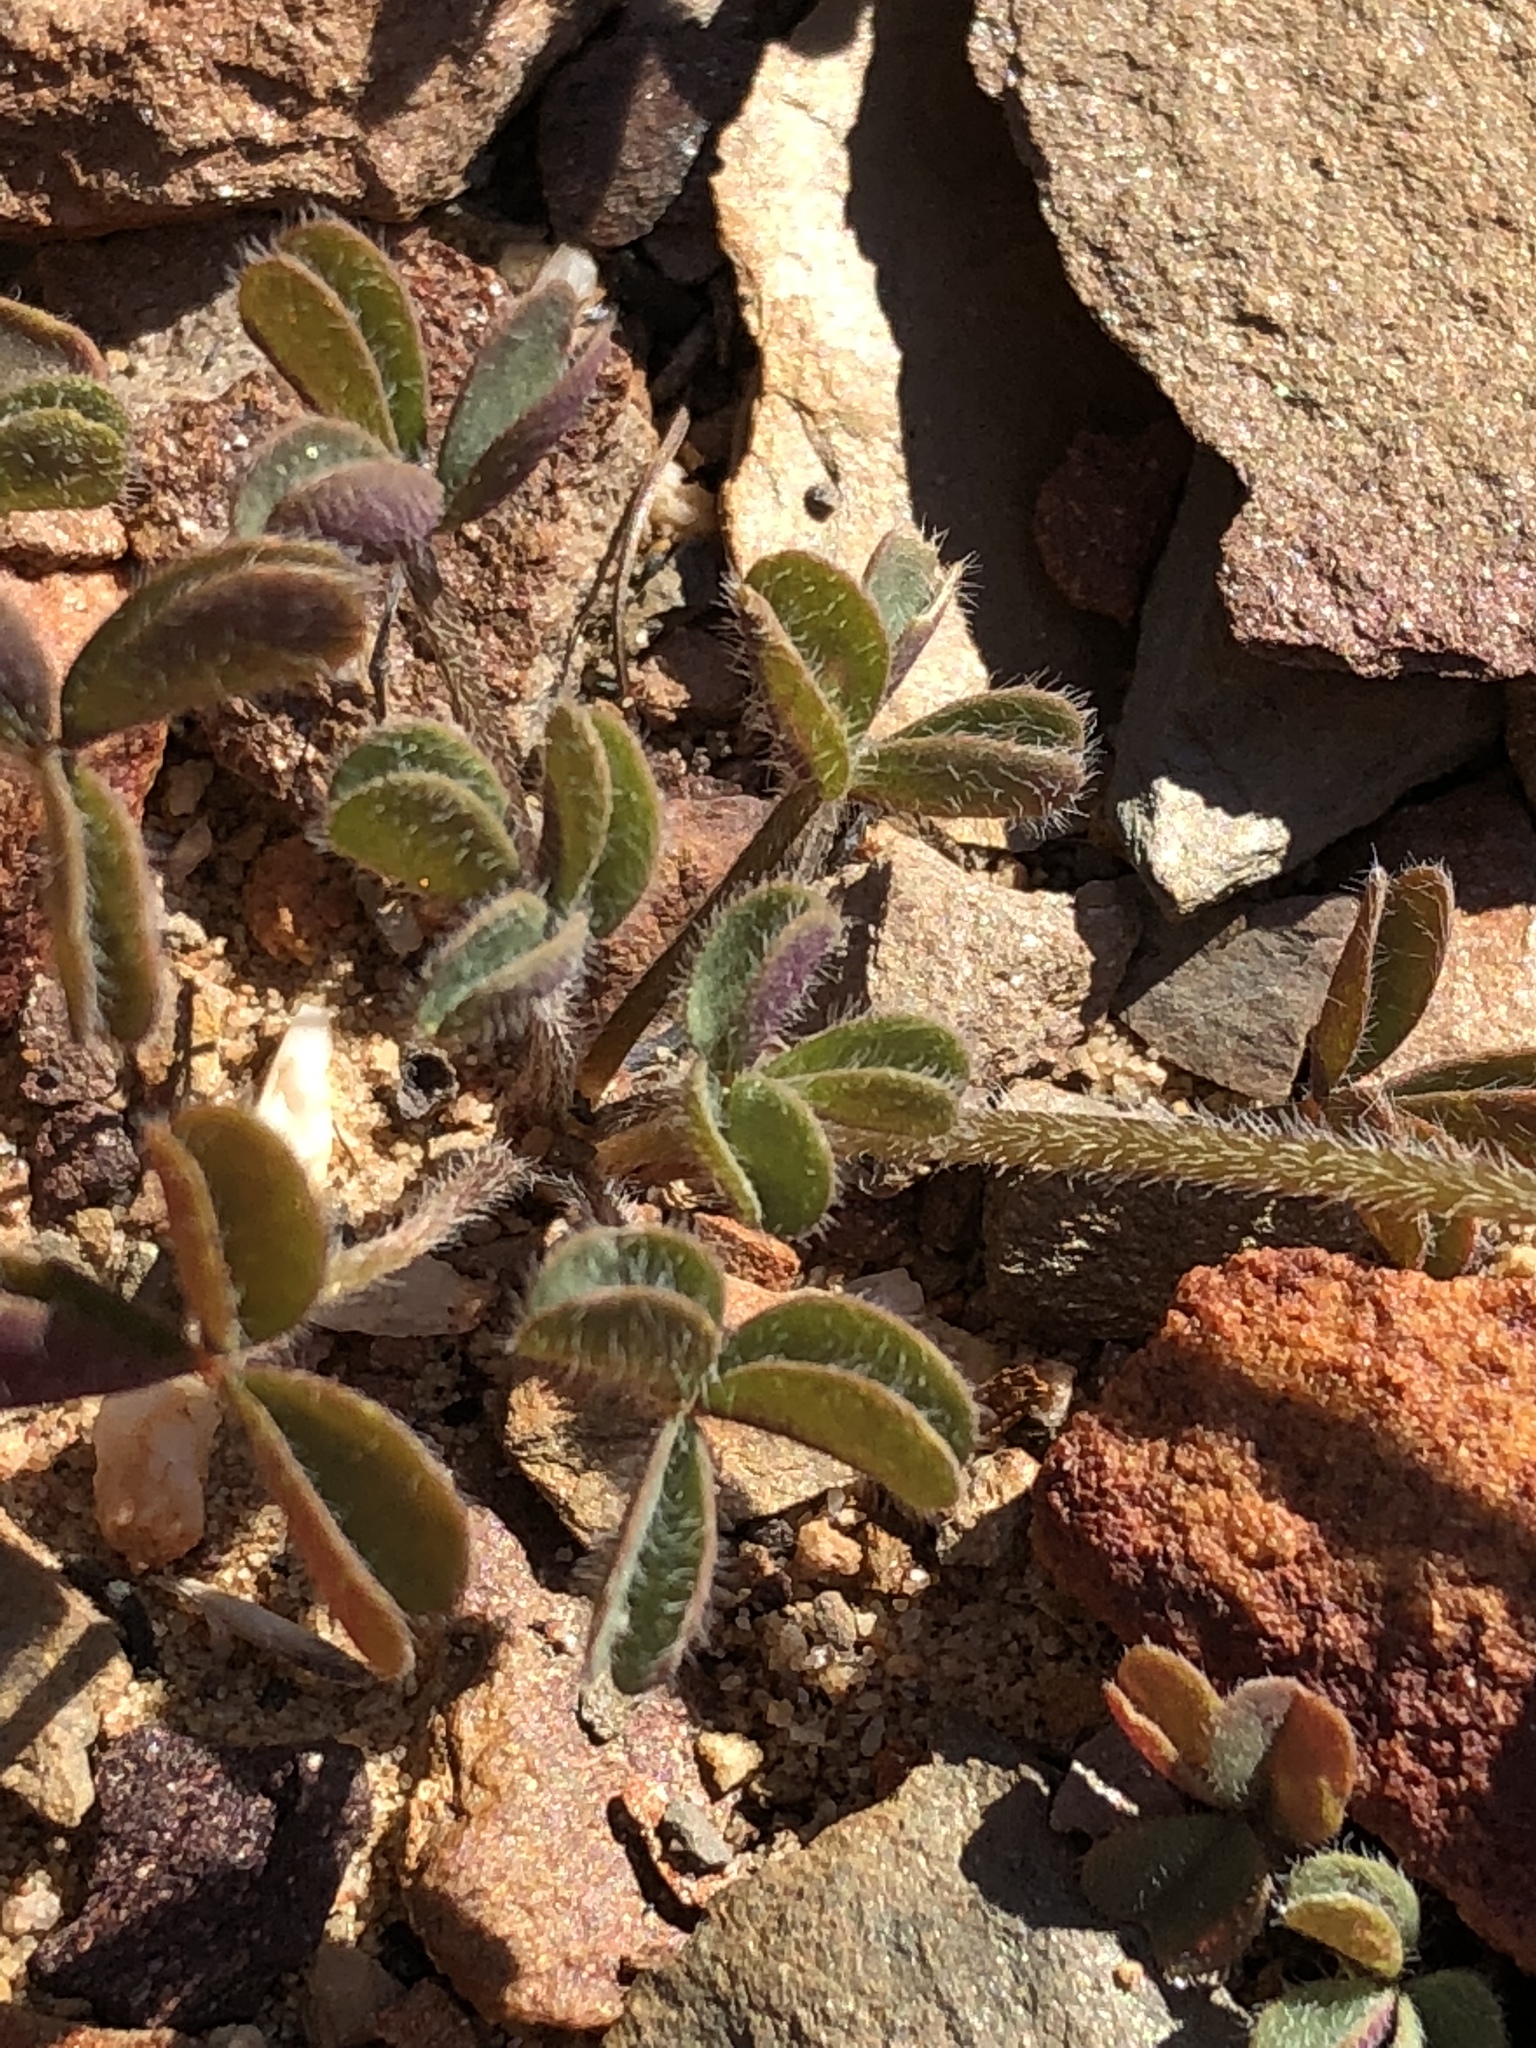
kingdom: Plantae
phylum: Tracheophyta
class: Magnoliopsida
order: Oxalidales
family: Oxalidaceae
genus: Oxalis
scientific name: Oxalis obtusa
